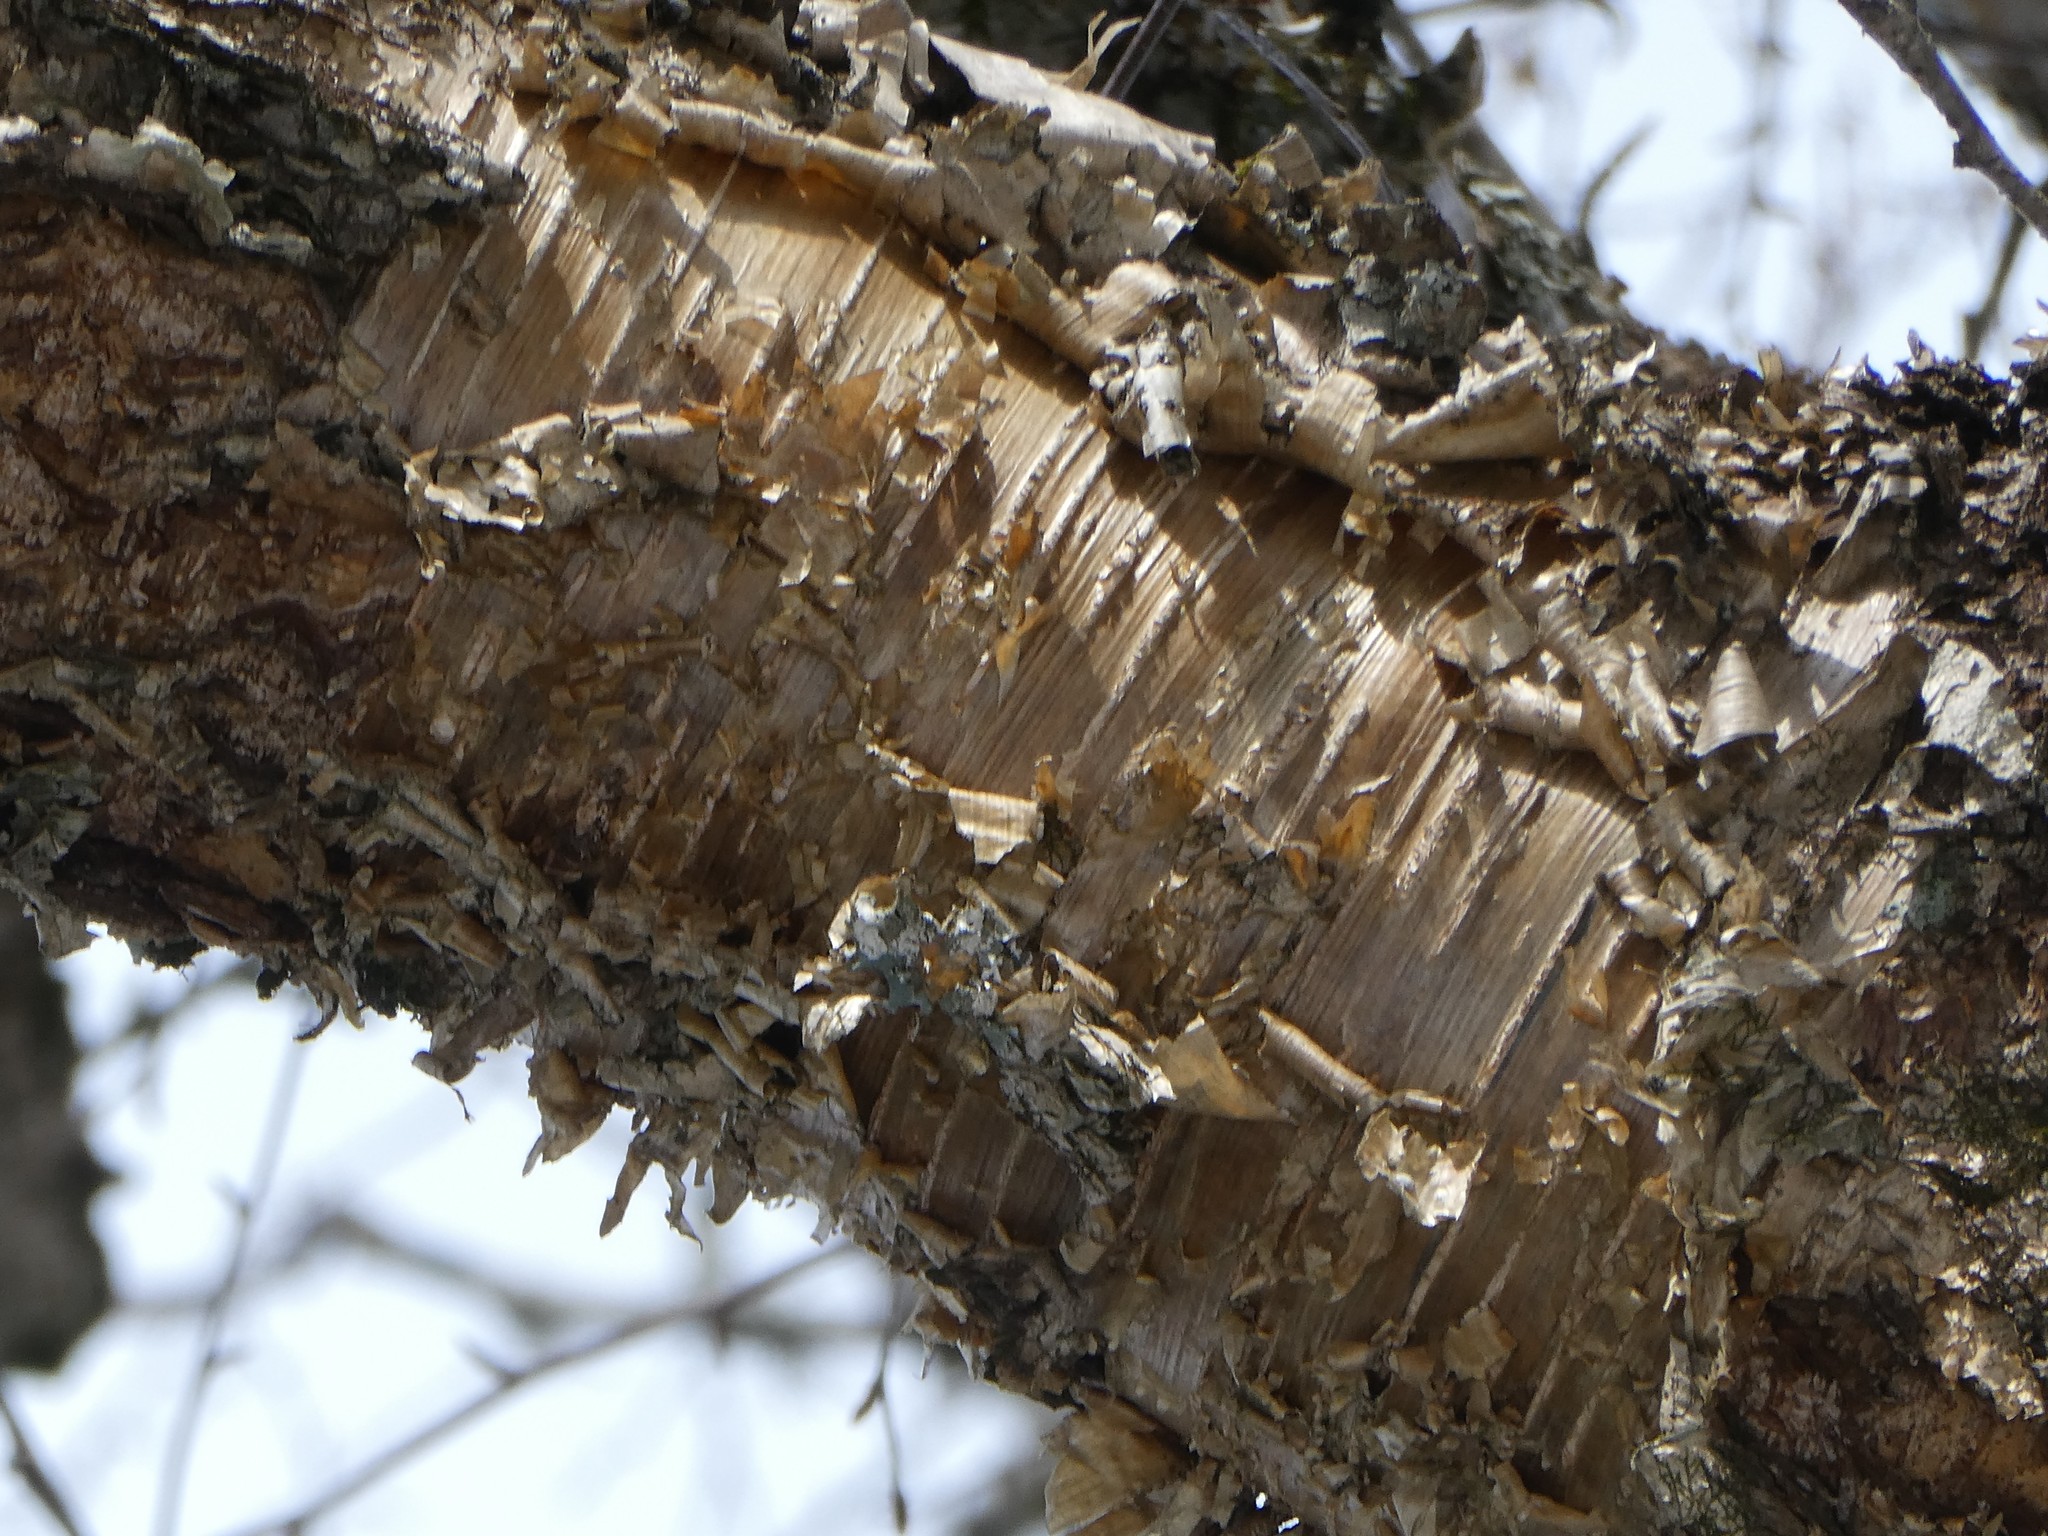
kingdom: Plantae
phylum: Tracheophyta
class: Magnoliopsida
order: Fagales
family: Betulaceae
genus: Betula
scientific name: Betula alleghaniensis
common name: Yellow birch
